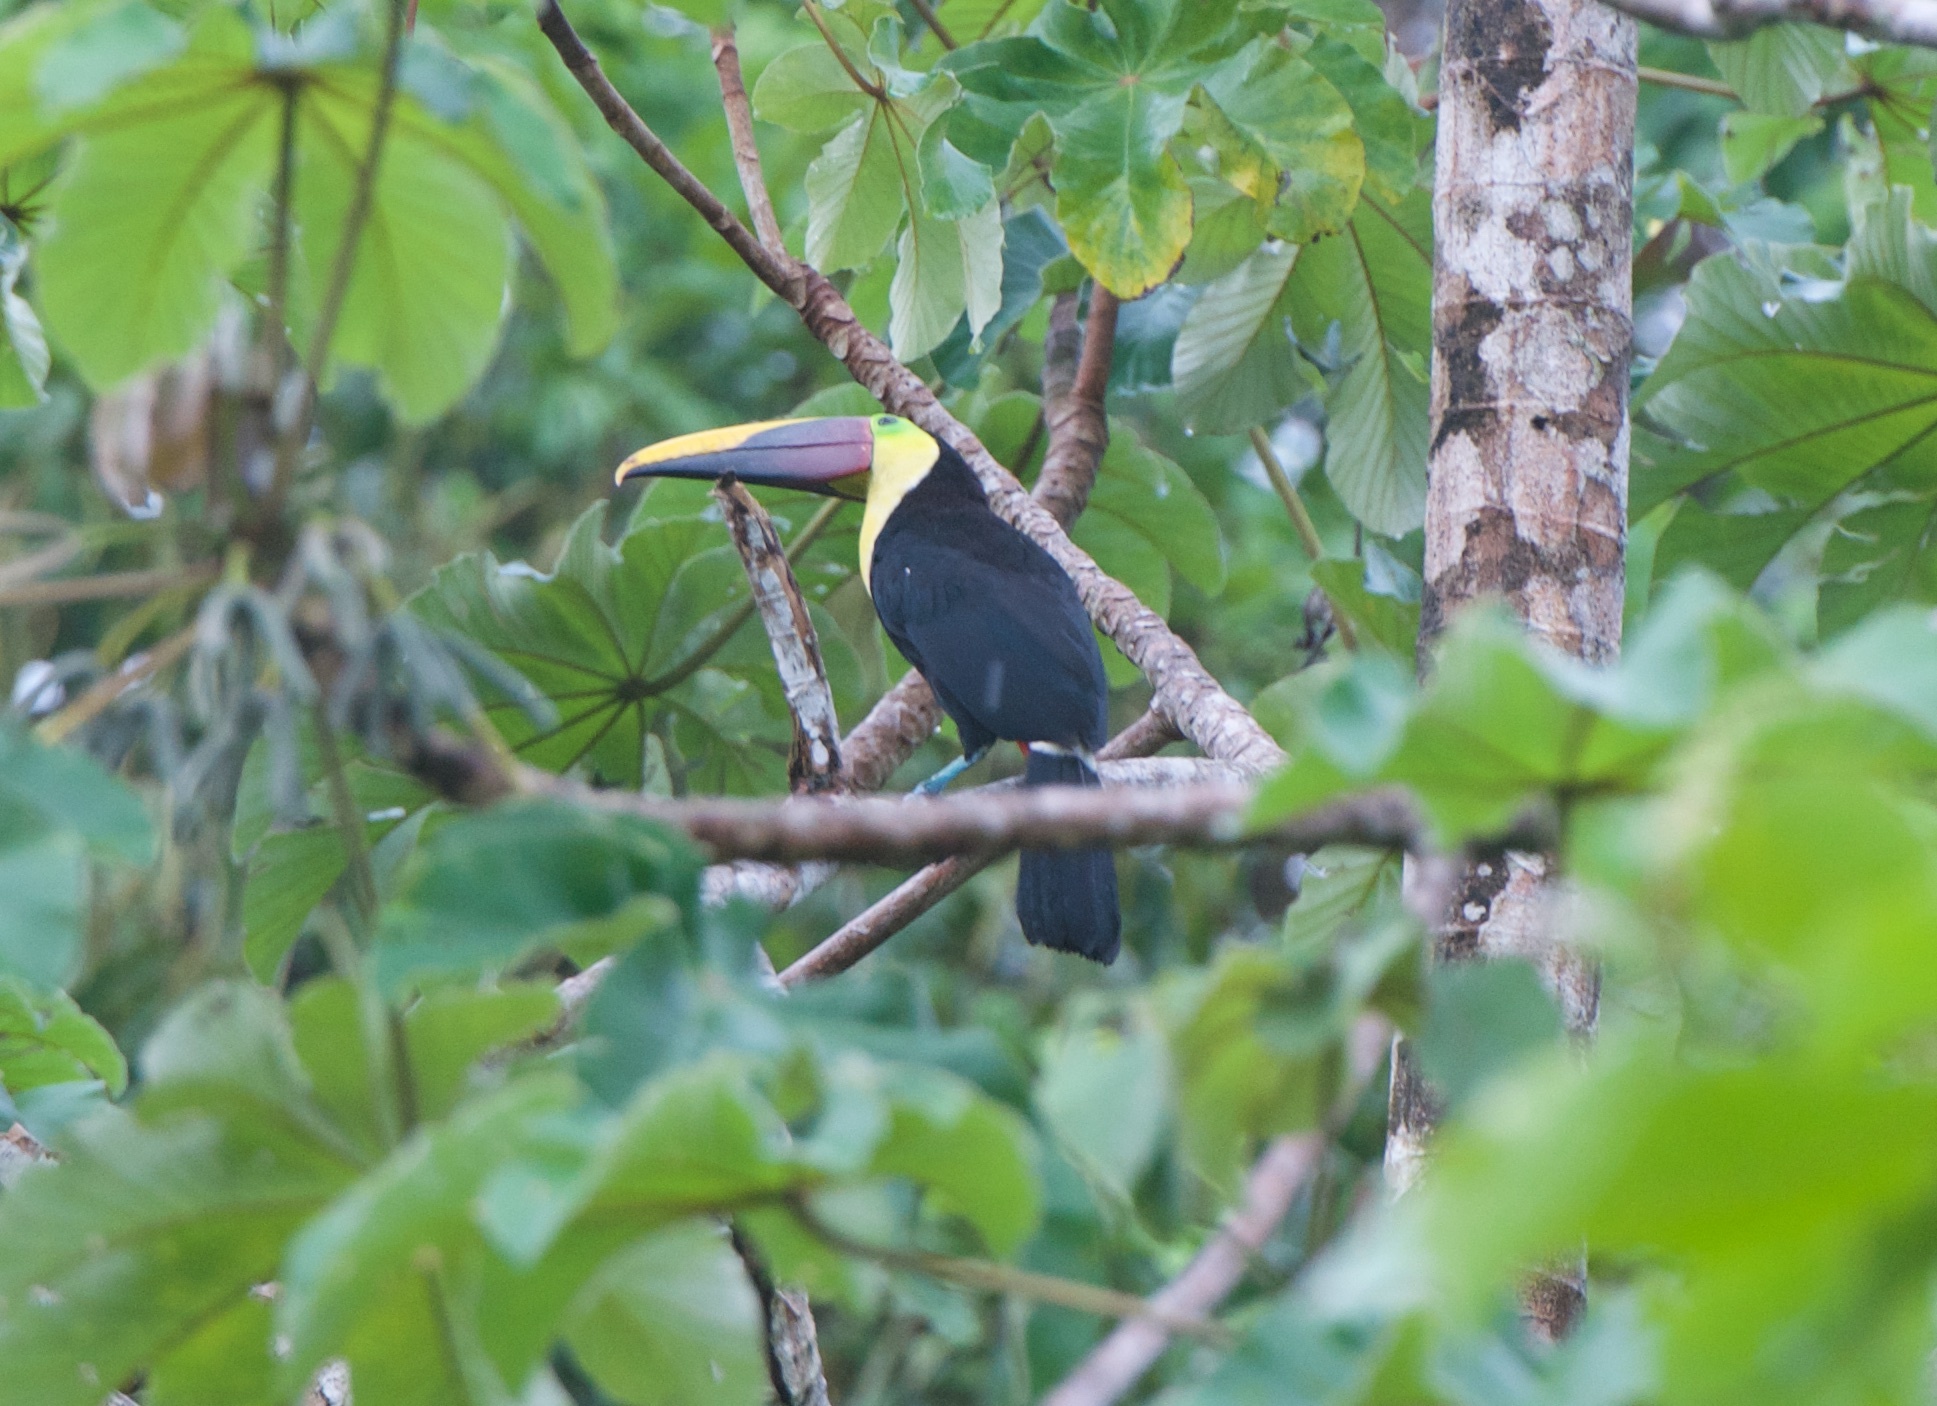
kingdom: Animalia
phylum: Chordata
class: Aves
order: Piciformes
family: Ramphastidae
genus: Ramphastos
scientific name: Ramphastos ambiguus
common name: Yellow-throated toucan
